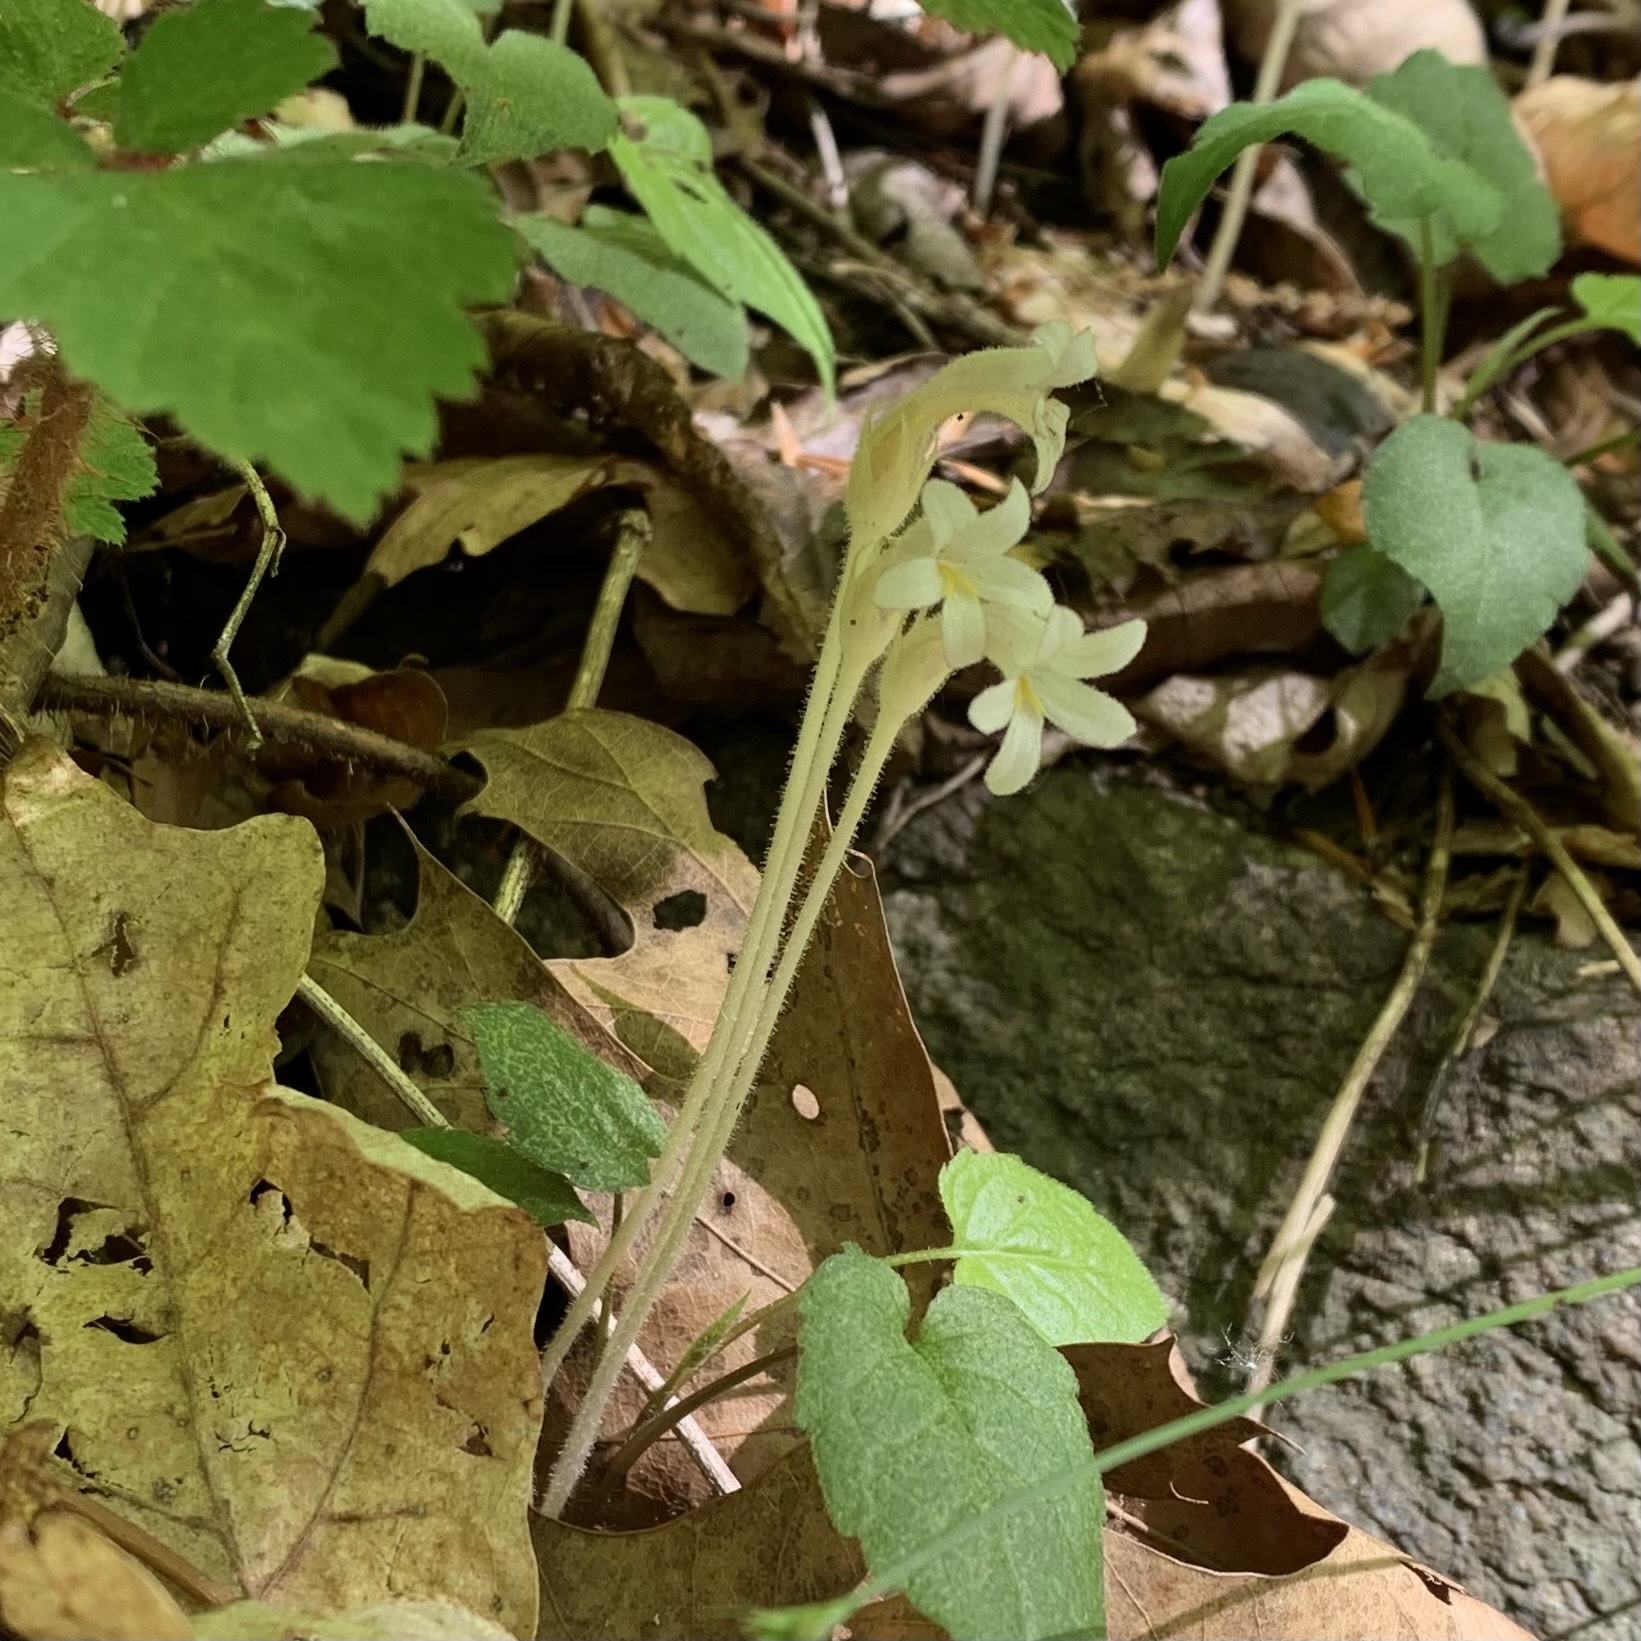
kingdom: Plantae
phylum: Tracheophyta
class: Magnoliopsida
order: Lamiales
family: Orobanchaceae
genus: Aphyllon
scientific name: Aphyllon uniflorum
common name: One-flowered broomrape
